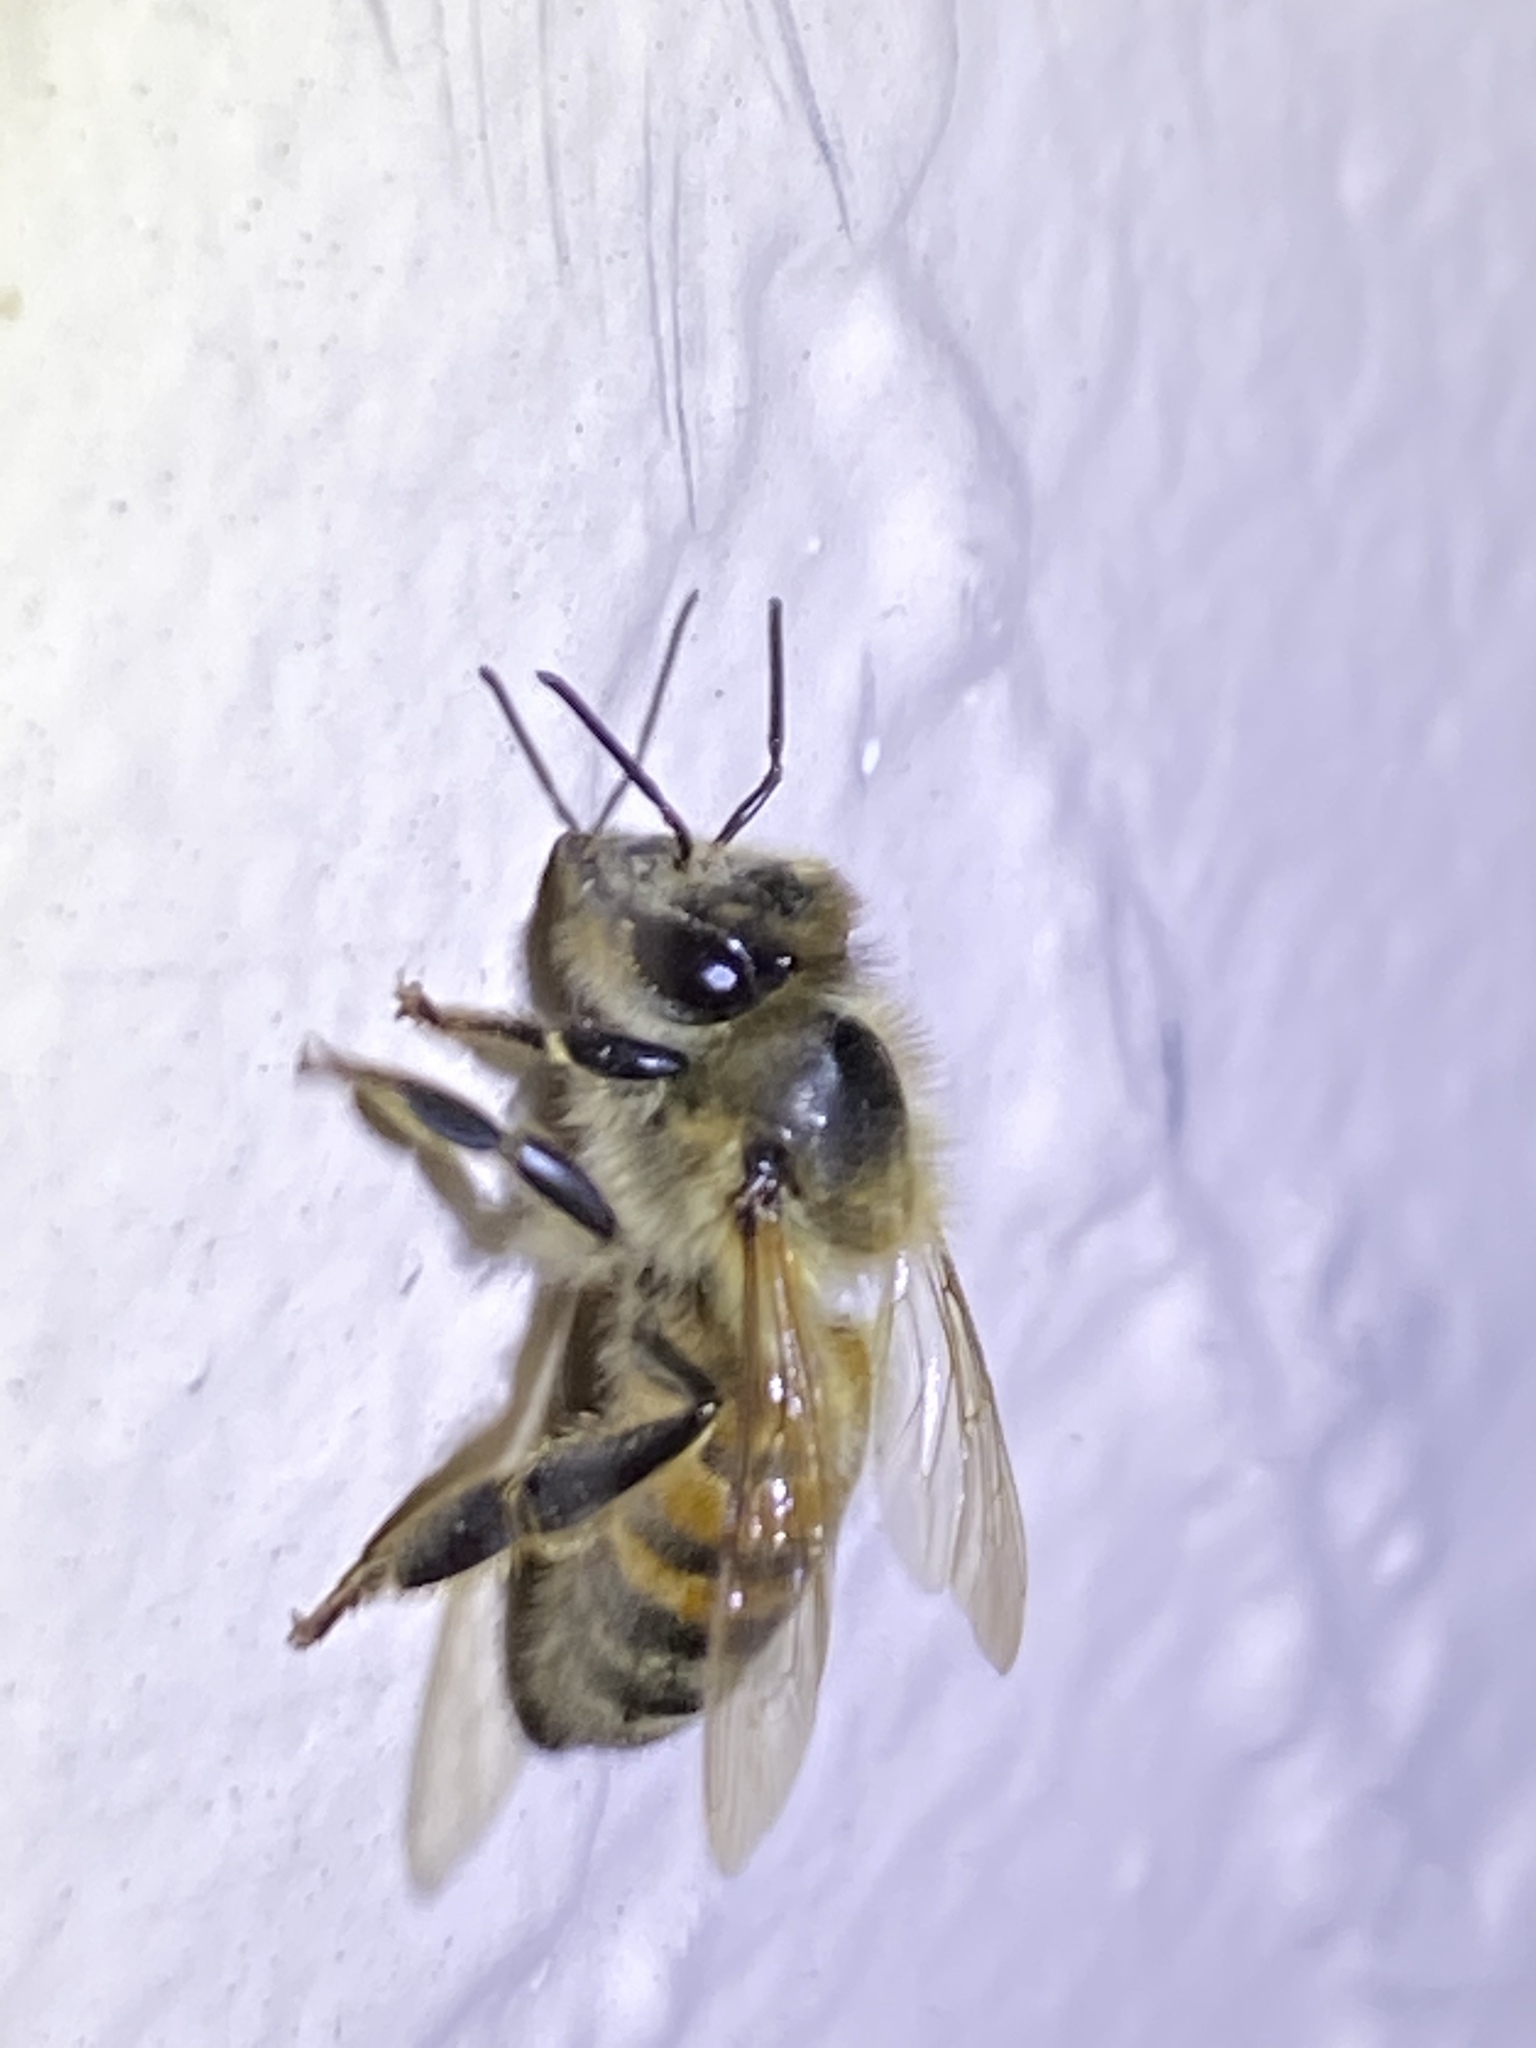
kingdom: Animalia
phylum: Arthropoda
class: Insecta
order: Hymenoptera
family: Apidae
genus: Apis
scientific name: Apis mellifera
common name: Honey bee
